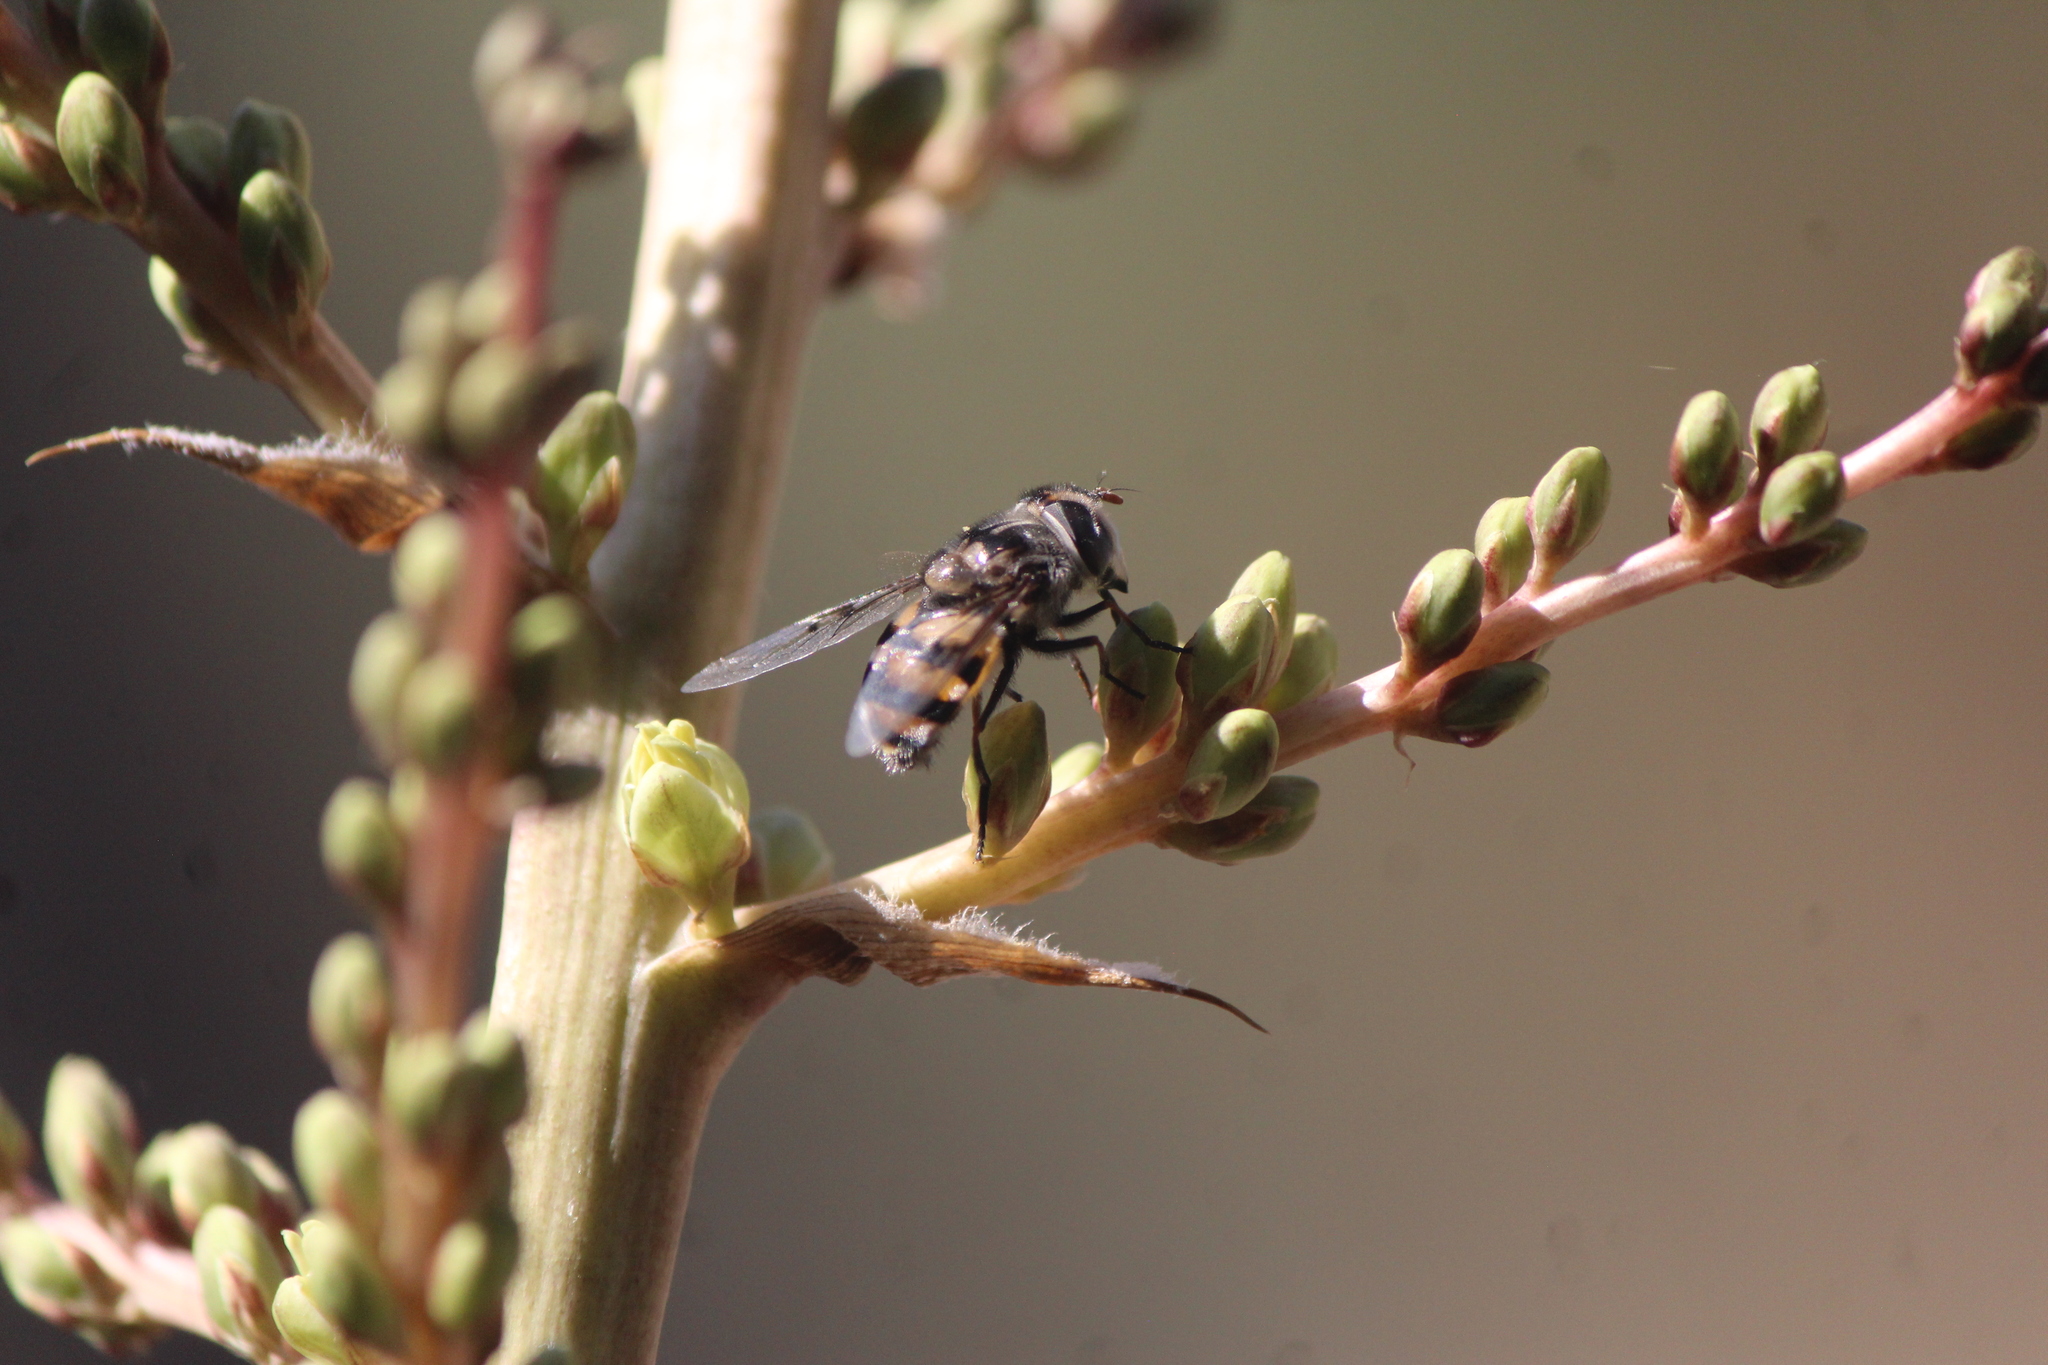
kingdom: Animalia
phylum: Arthropoda
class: Insecta
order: Diptera
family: Syrphidae
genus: Copestylum
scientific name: Copestylum avidum
